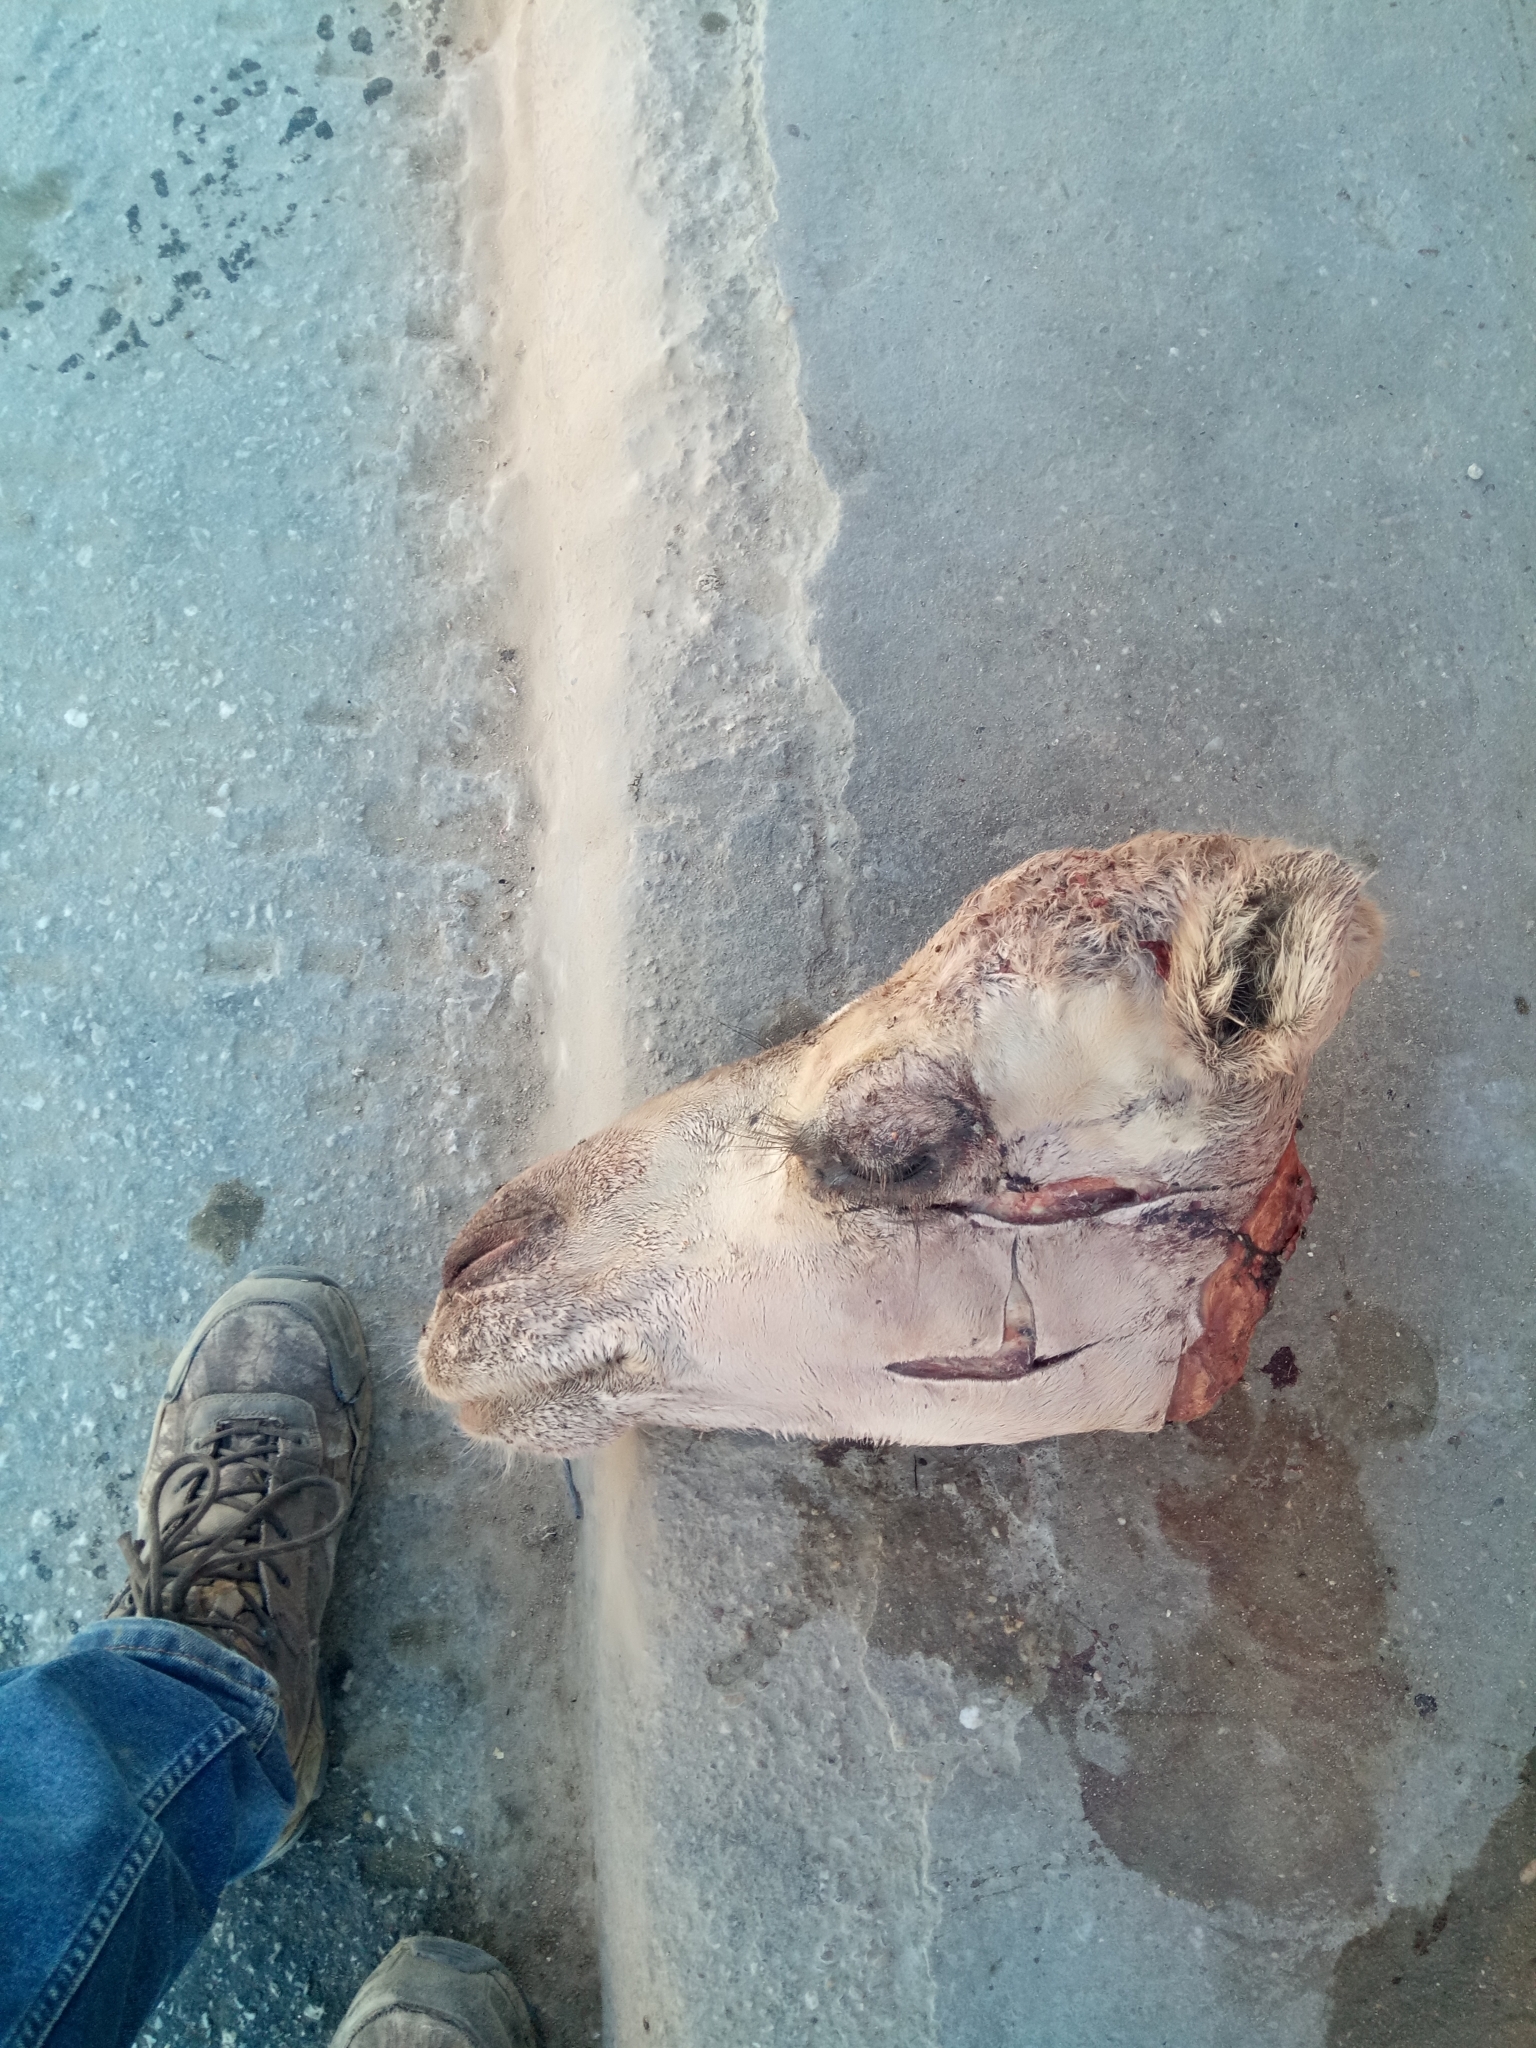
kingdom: Animalia
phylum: Chordata
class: Mammalia
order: Artiodactyla
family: Camelidae
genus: Camelus
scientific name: Camelus dromedarius
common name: One-humped camel
